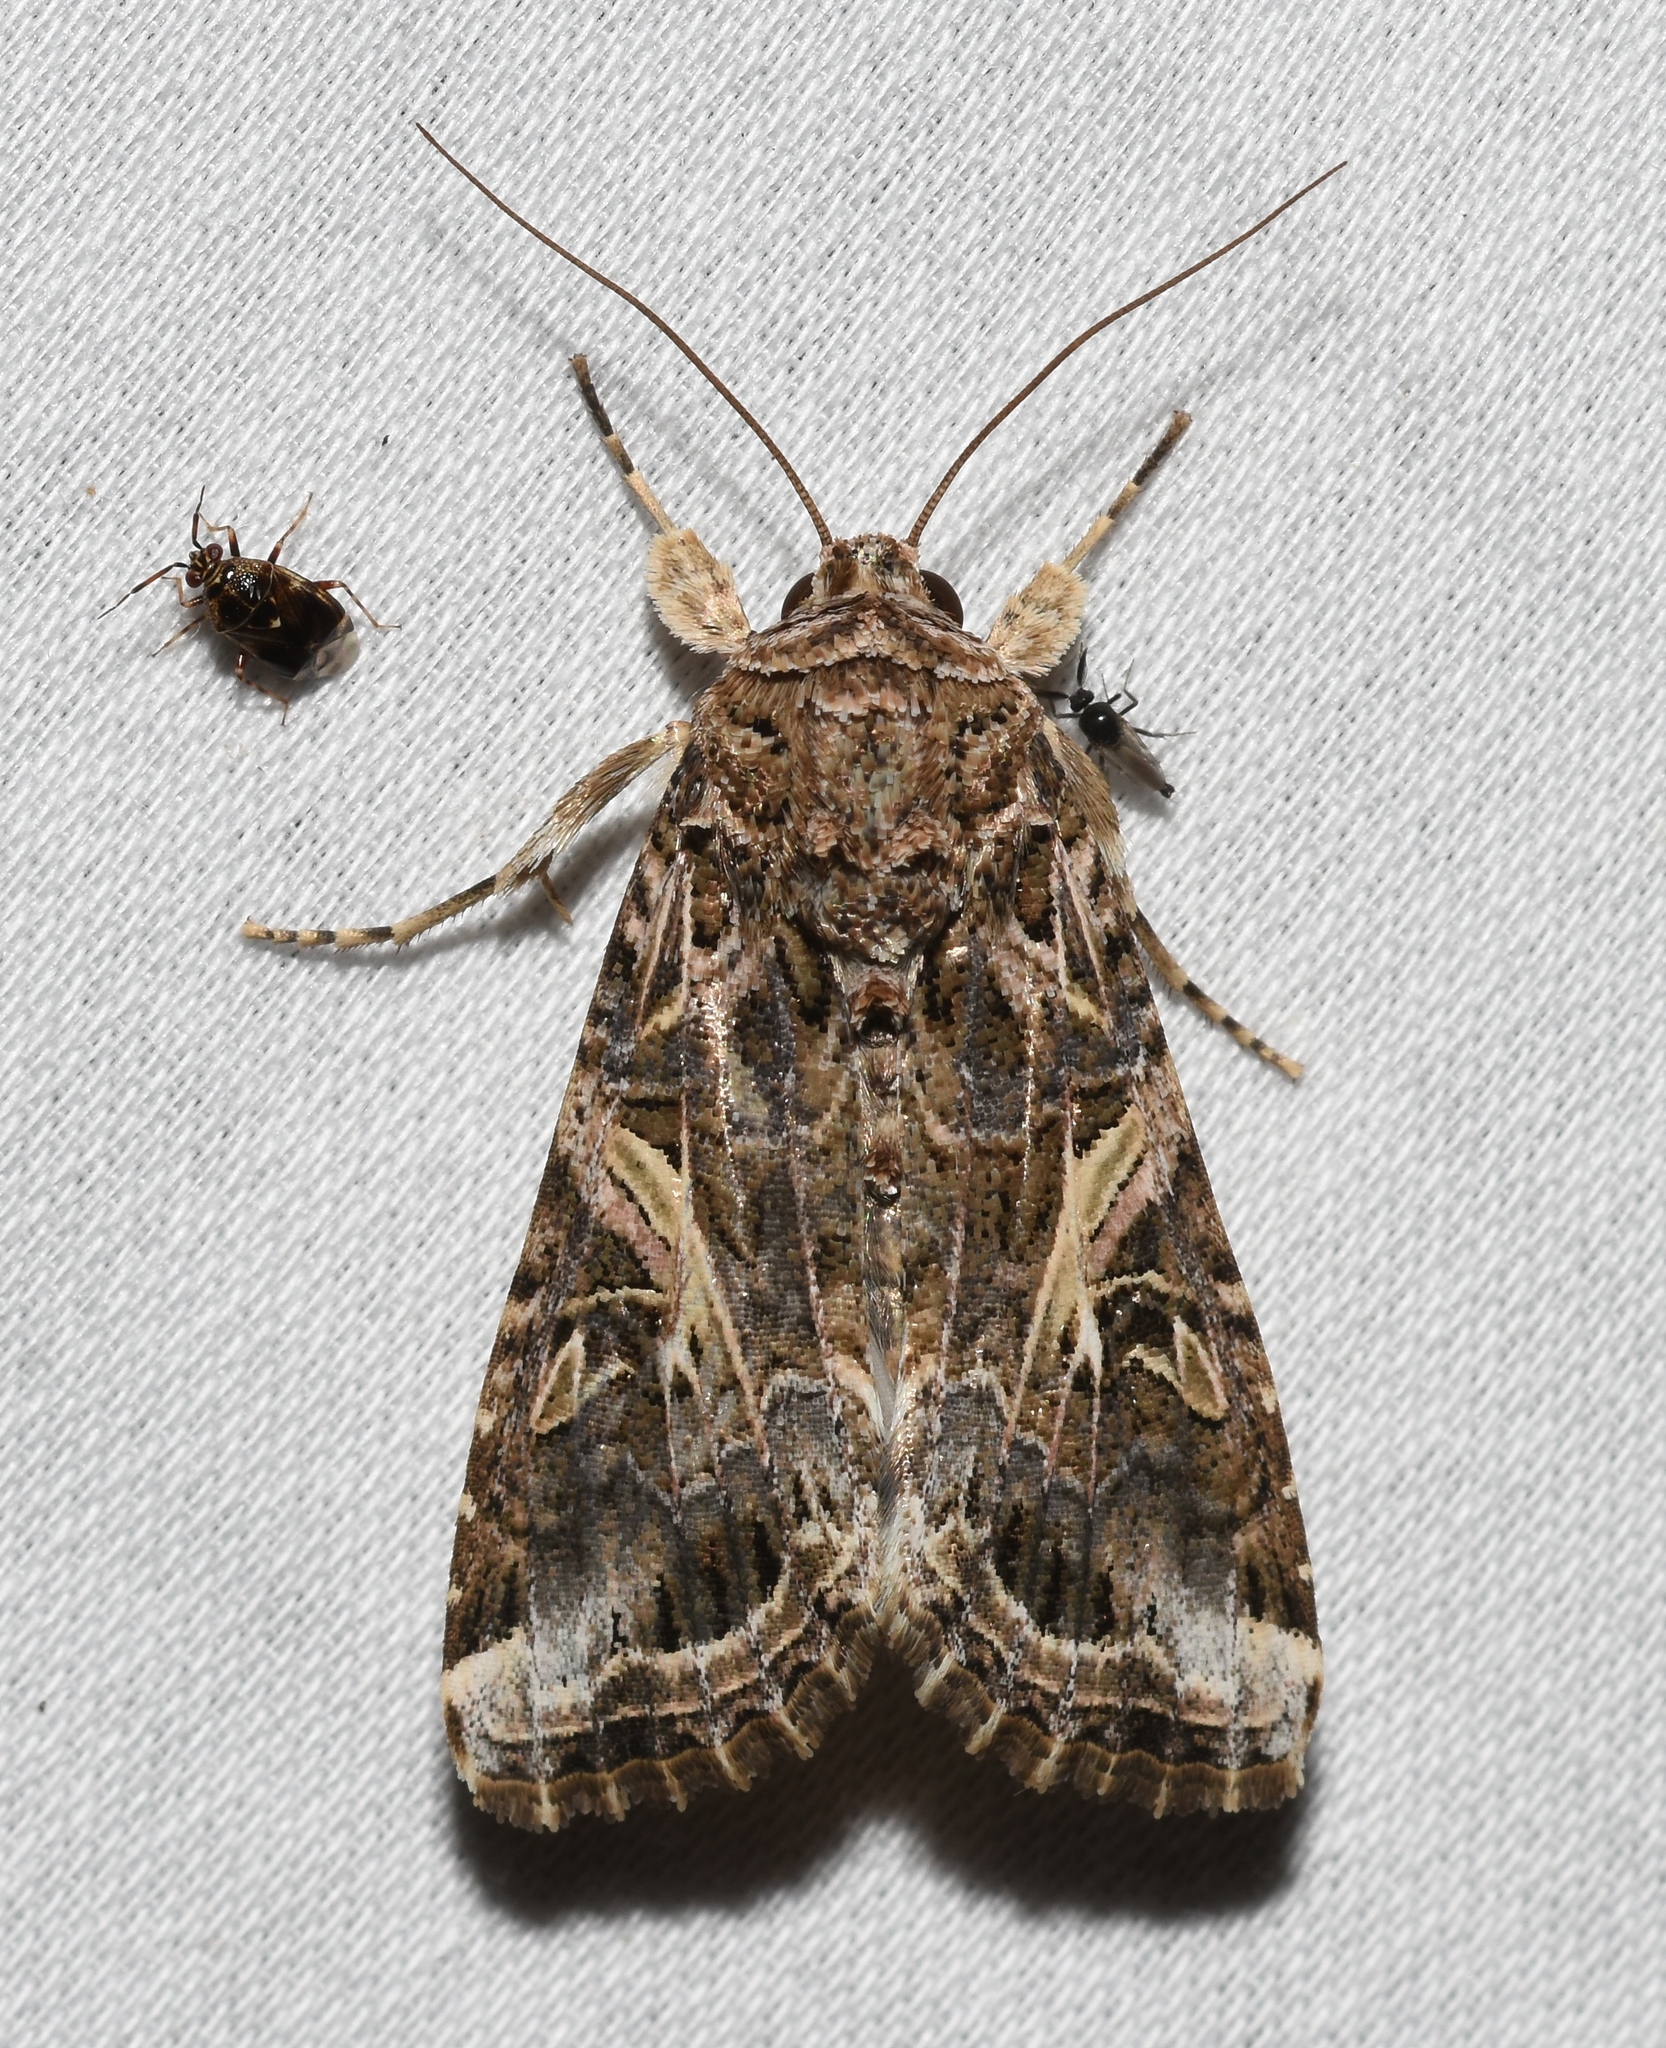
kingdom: Animalia
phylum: Arthropoda
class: Insecta
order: Lepidoptera
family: Noctuidae
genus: Spodoptera
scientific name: Spodoptera ornithogalli
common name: Yellow-striped armyworm
